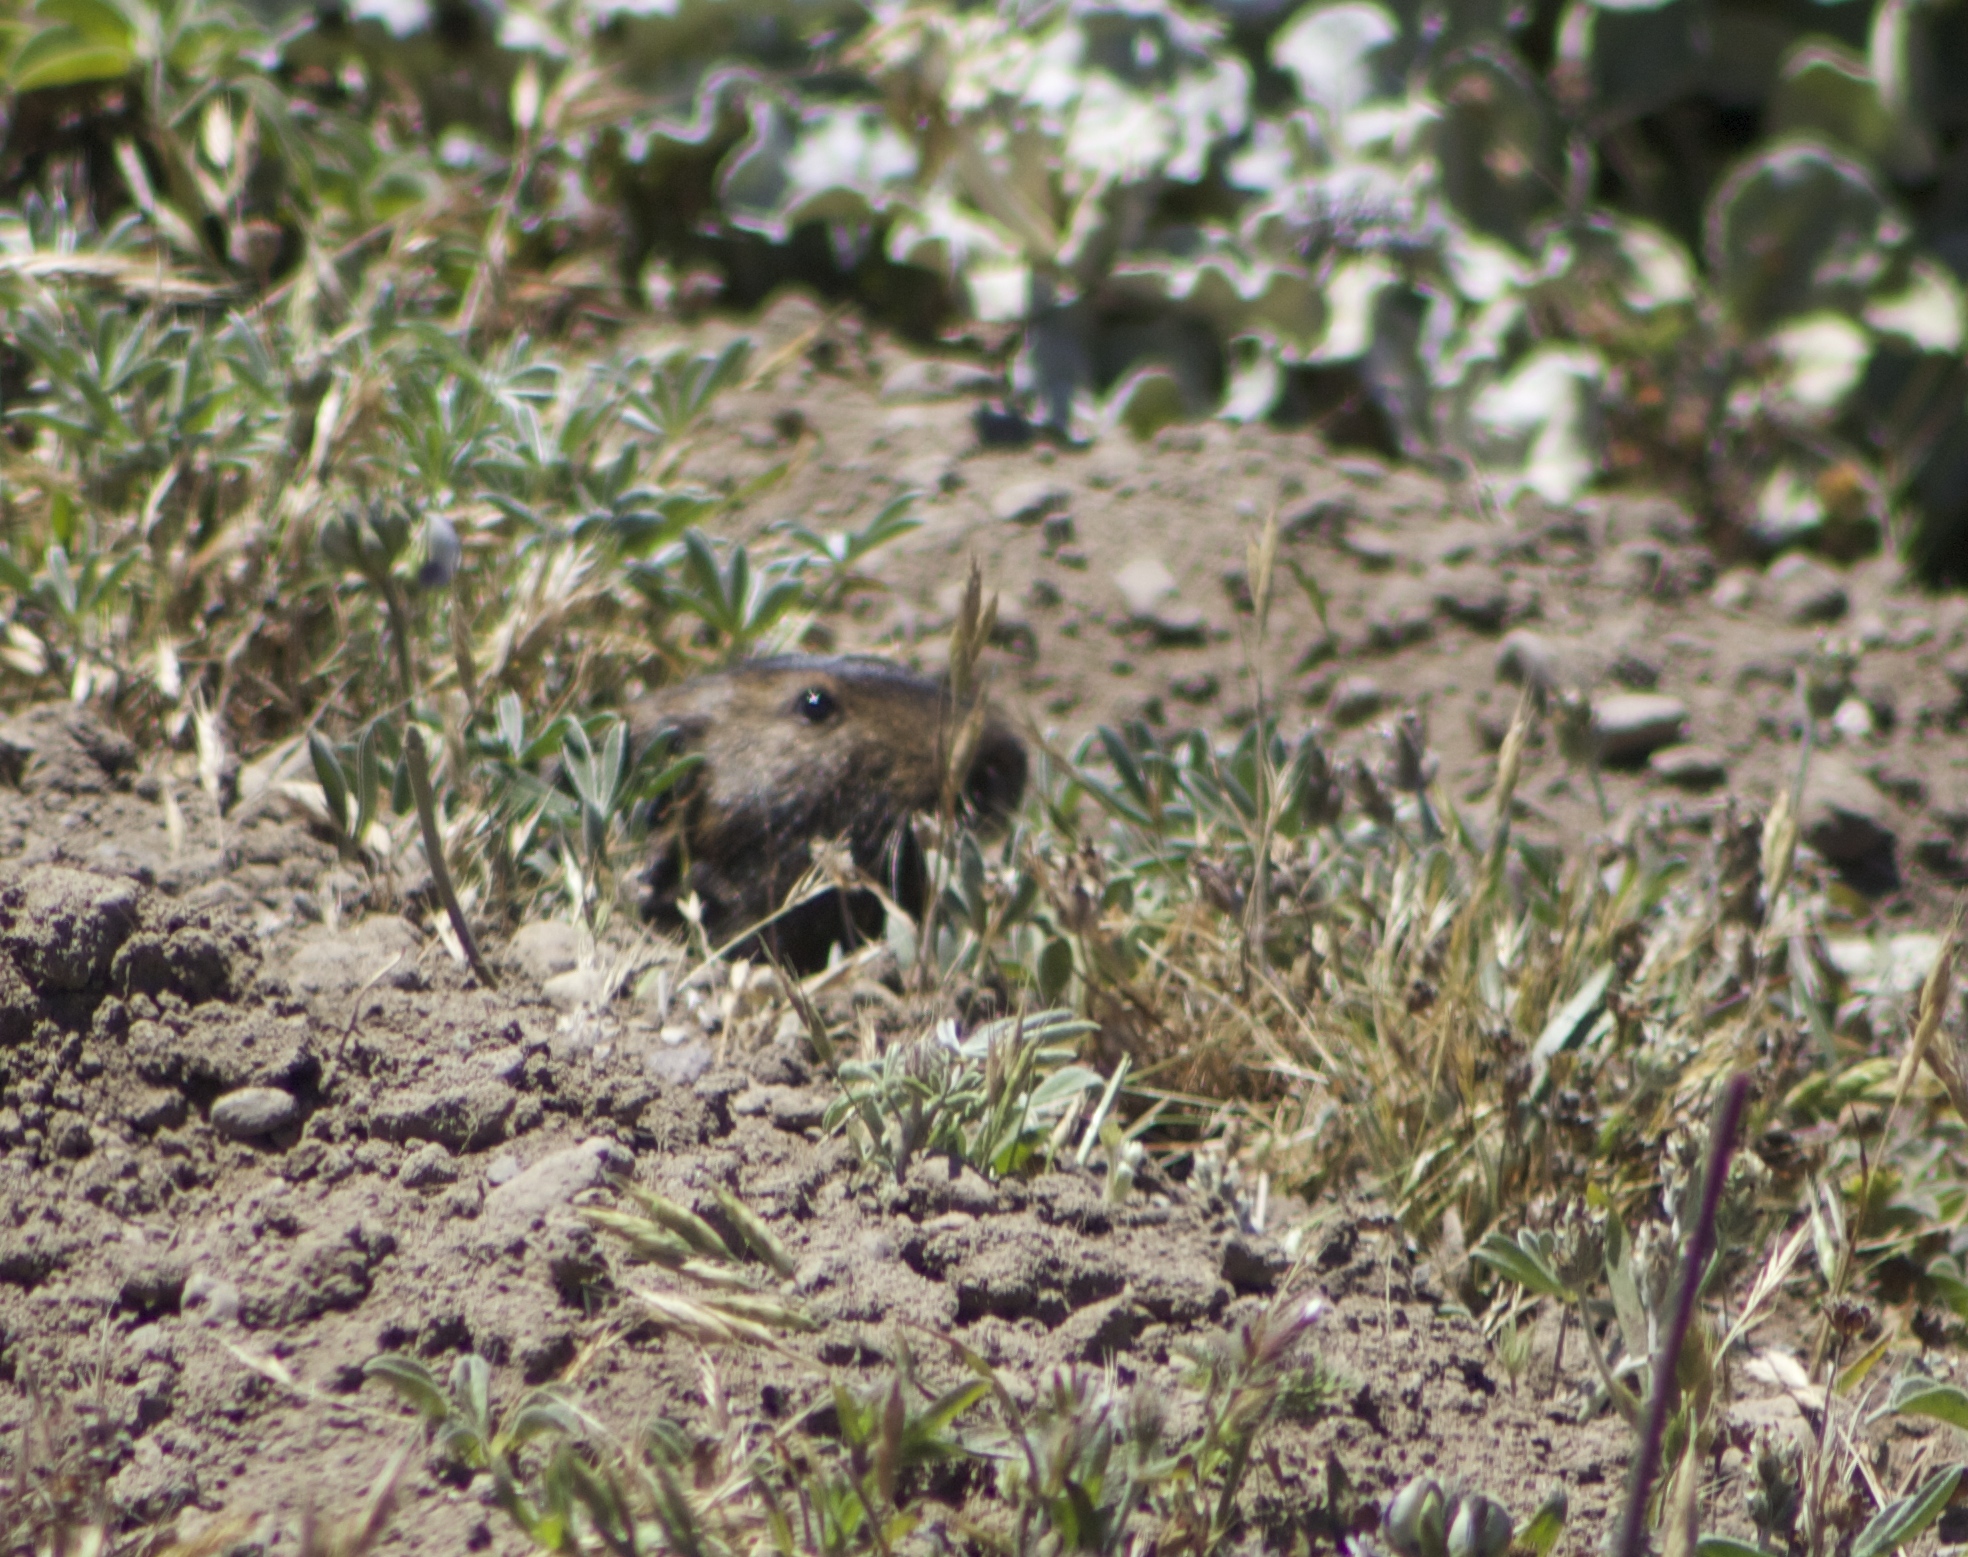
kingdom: Animalia
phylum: Chordata
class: Mammalia
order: Rodentia
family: Geomyidae
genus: Thomomys
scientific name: Thomomys bottae
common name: Botta's pocket gopher
